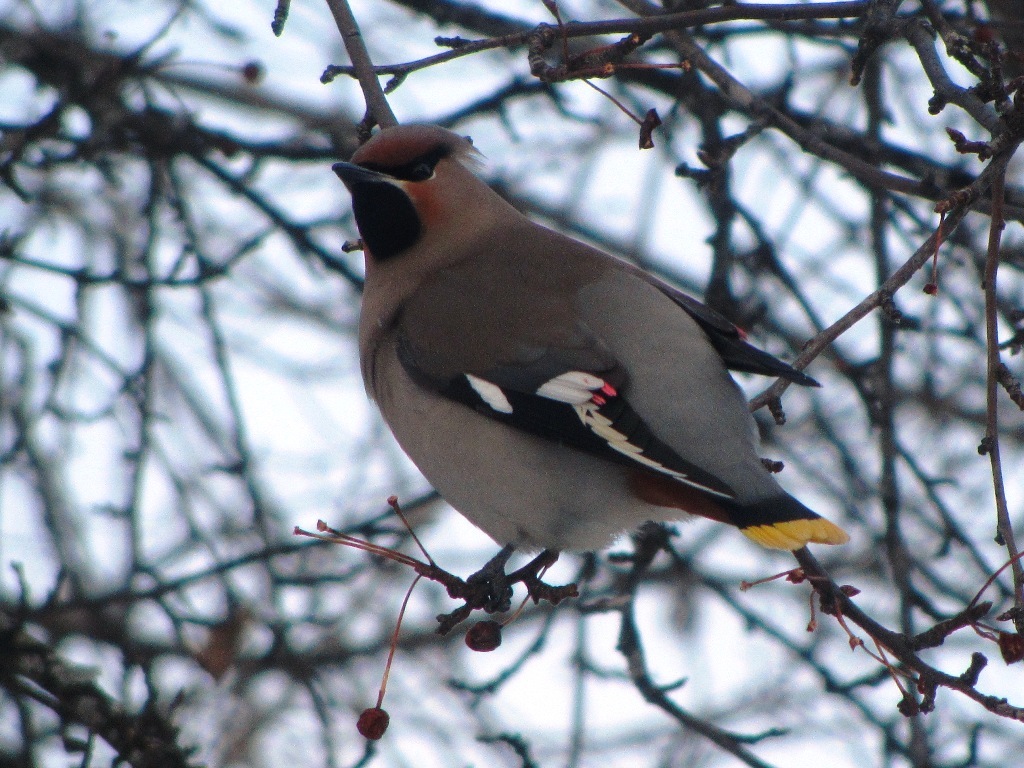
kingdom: Animalia
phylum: Chordata
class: Aves
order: Passeriformes
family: Bombycillidae
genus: Bombycilla
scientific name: Bombycilla garrulus
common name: Bohemian waxwing
